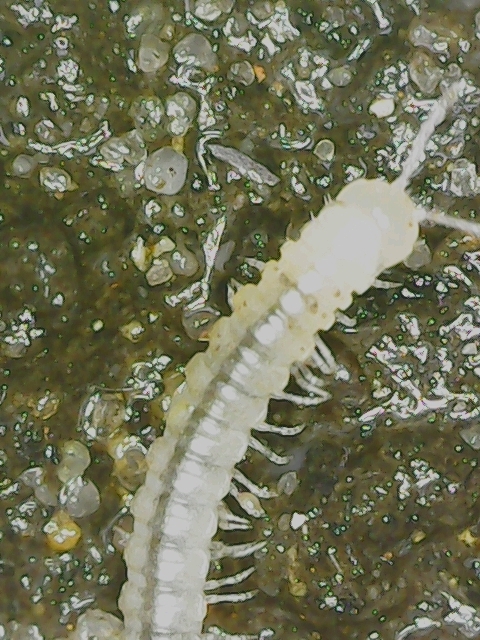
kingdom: Animalia
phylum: Arthropoda
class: Diplopoda
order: Polydesmida
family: Paradoxosomatidae
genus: Oxidus
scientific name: Oxidus gracilis
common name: Greenhouse millipede
